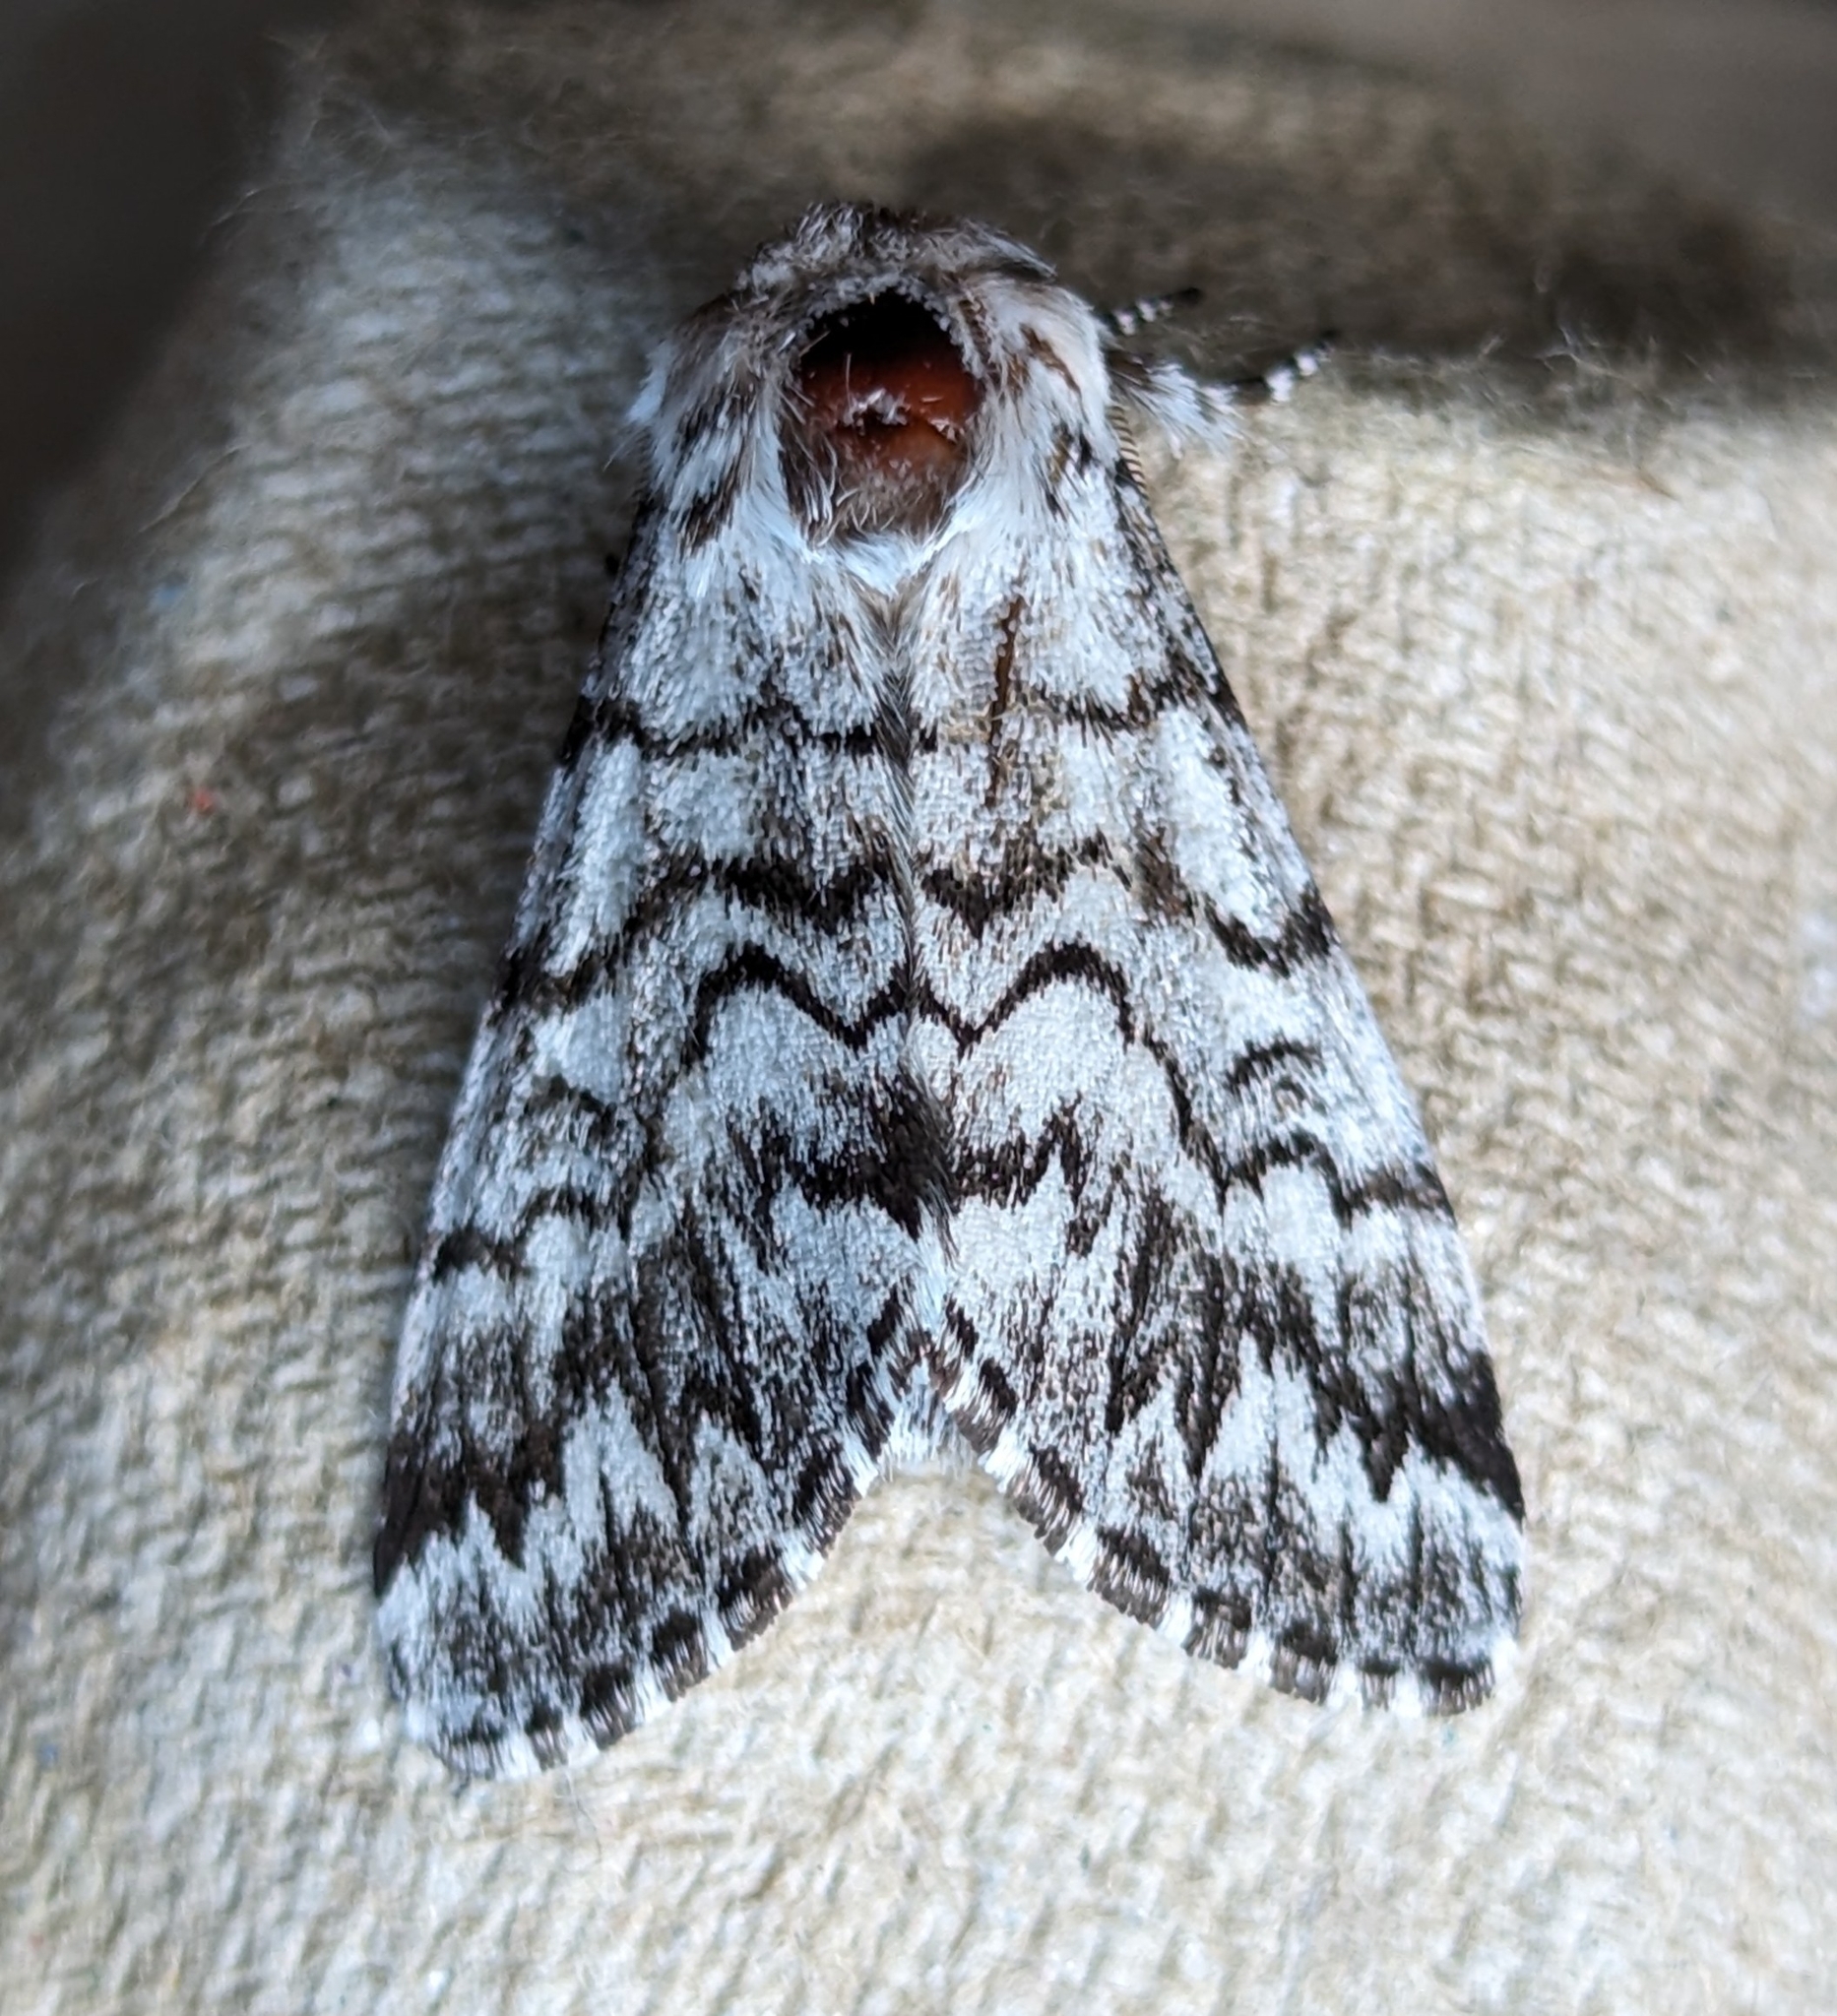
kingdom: Animalia
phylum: Arthropoda
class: Insecta
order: Lepidoptera
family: Noctuidae
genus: Panthea
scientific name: Panthea virginarius
